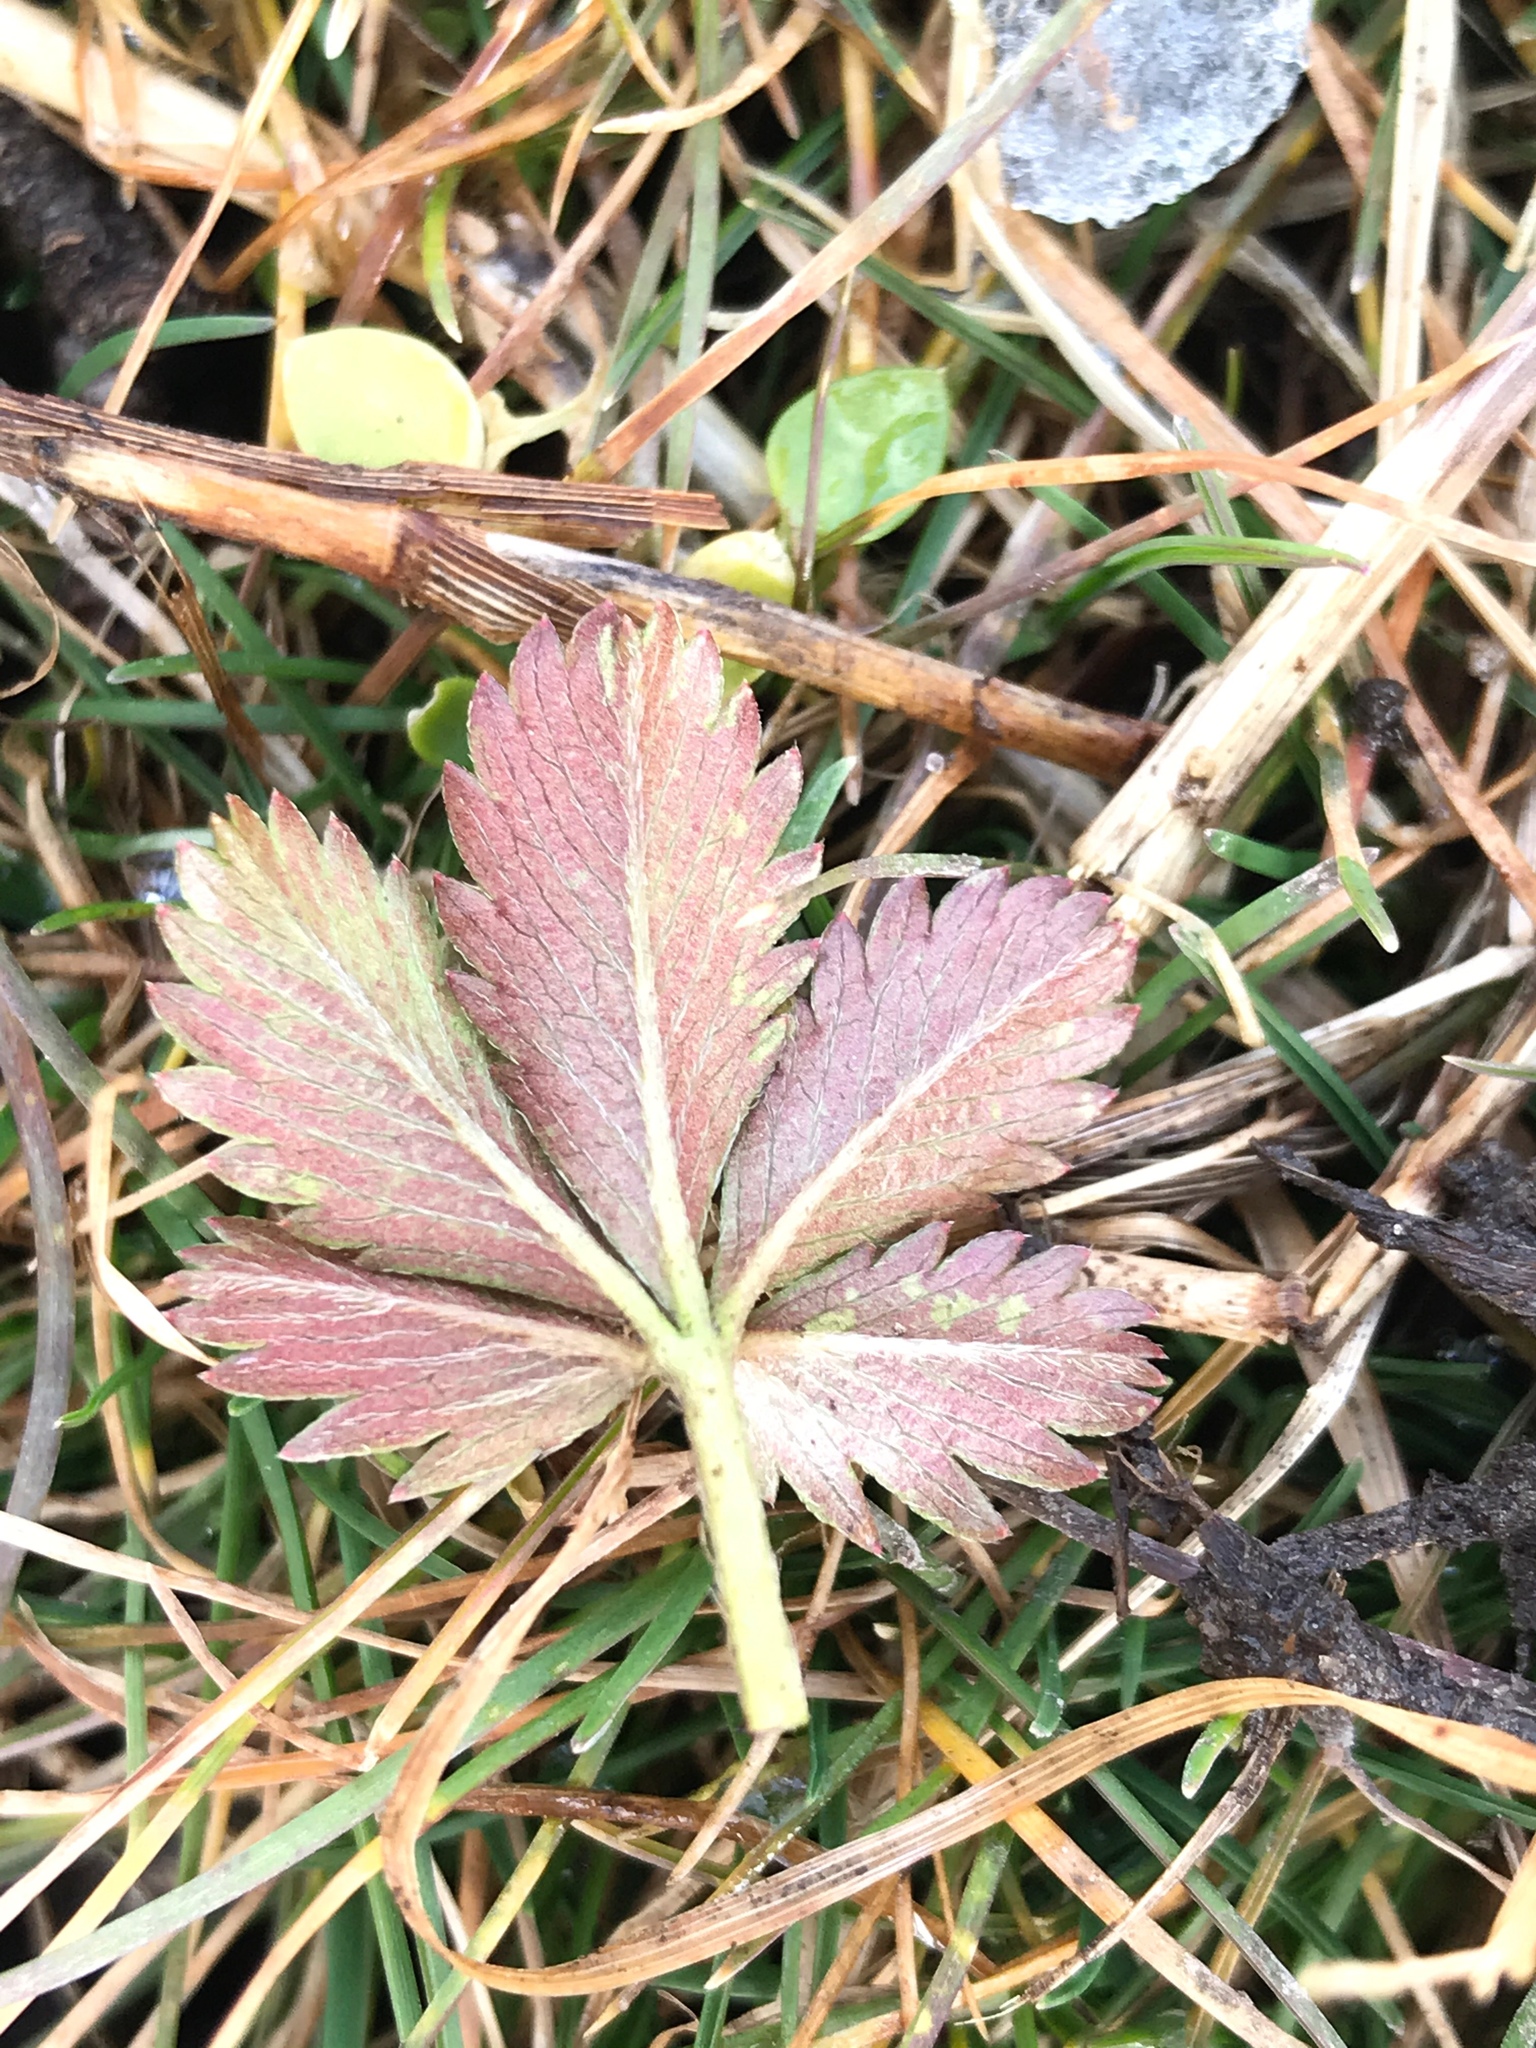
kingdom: Plantae
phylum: Tracheophyta
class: Magnoliopsida
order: Rosales
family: Rosaceae
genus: Potentilla
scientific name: Potentilla canadensis
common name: Canada cinquefoil
